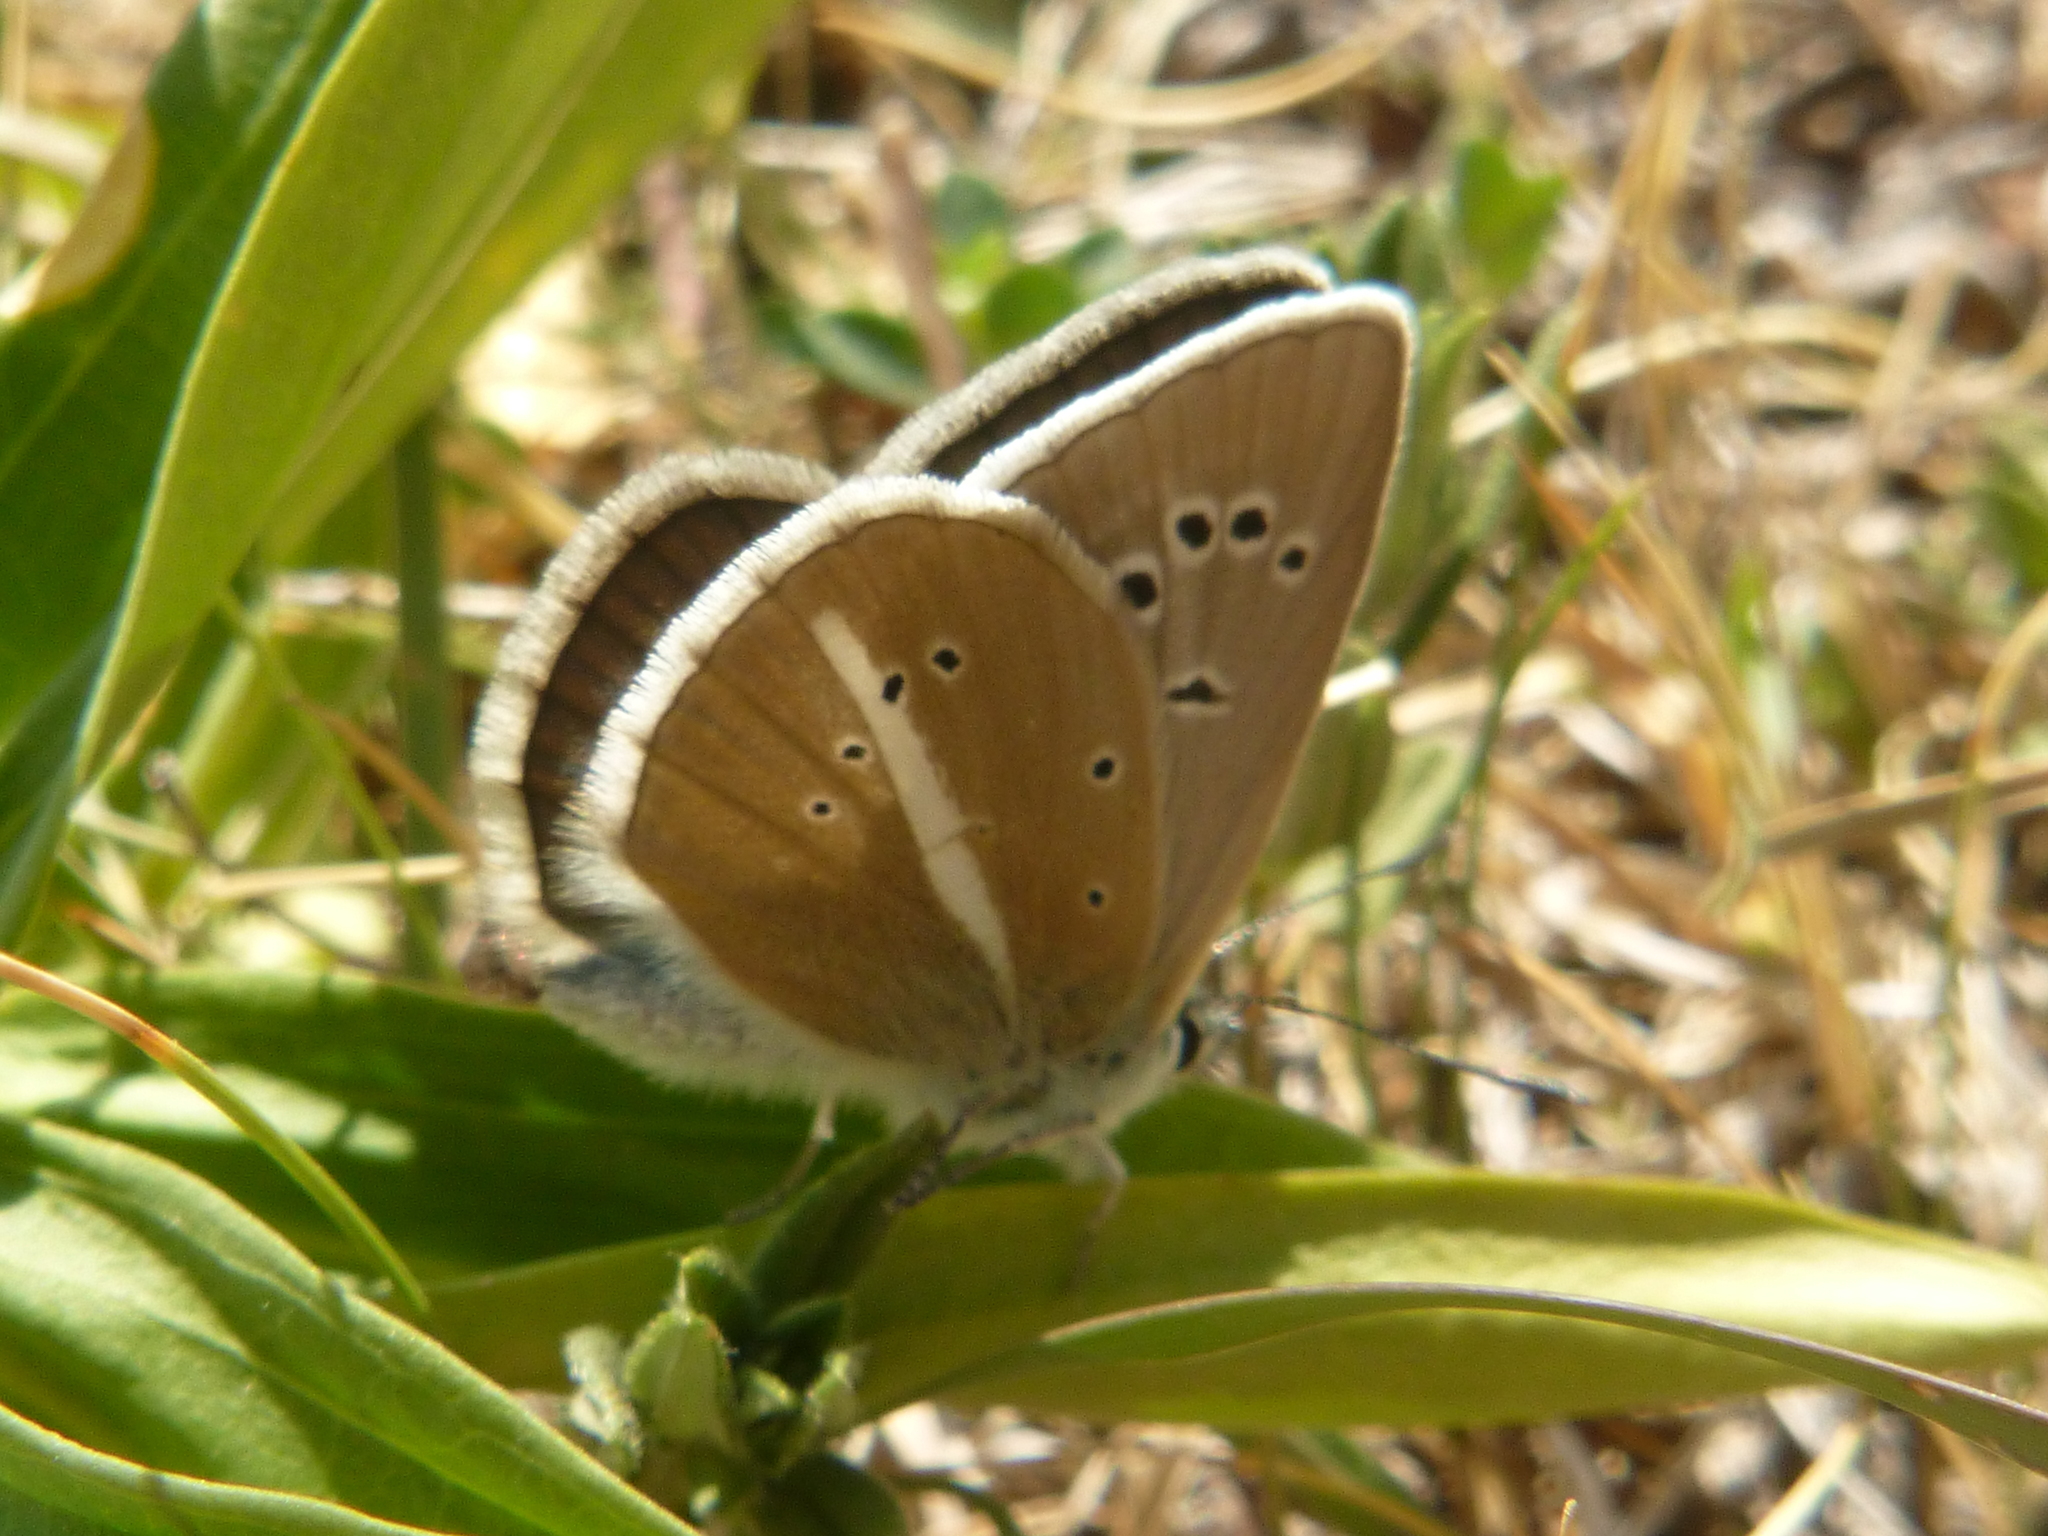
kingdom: Animalia
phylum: Arthropoda
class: Insecta
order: Lepidoptera
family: Lycaenidae
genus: Agrodiaetus
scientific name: Agrodiaetus damon
